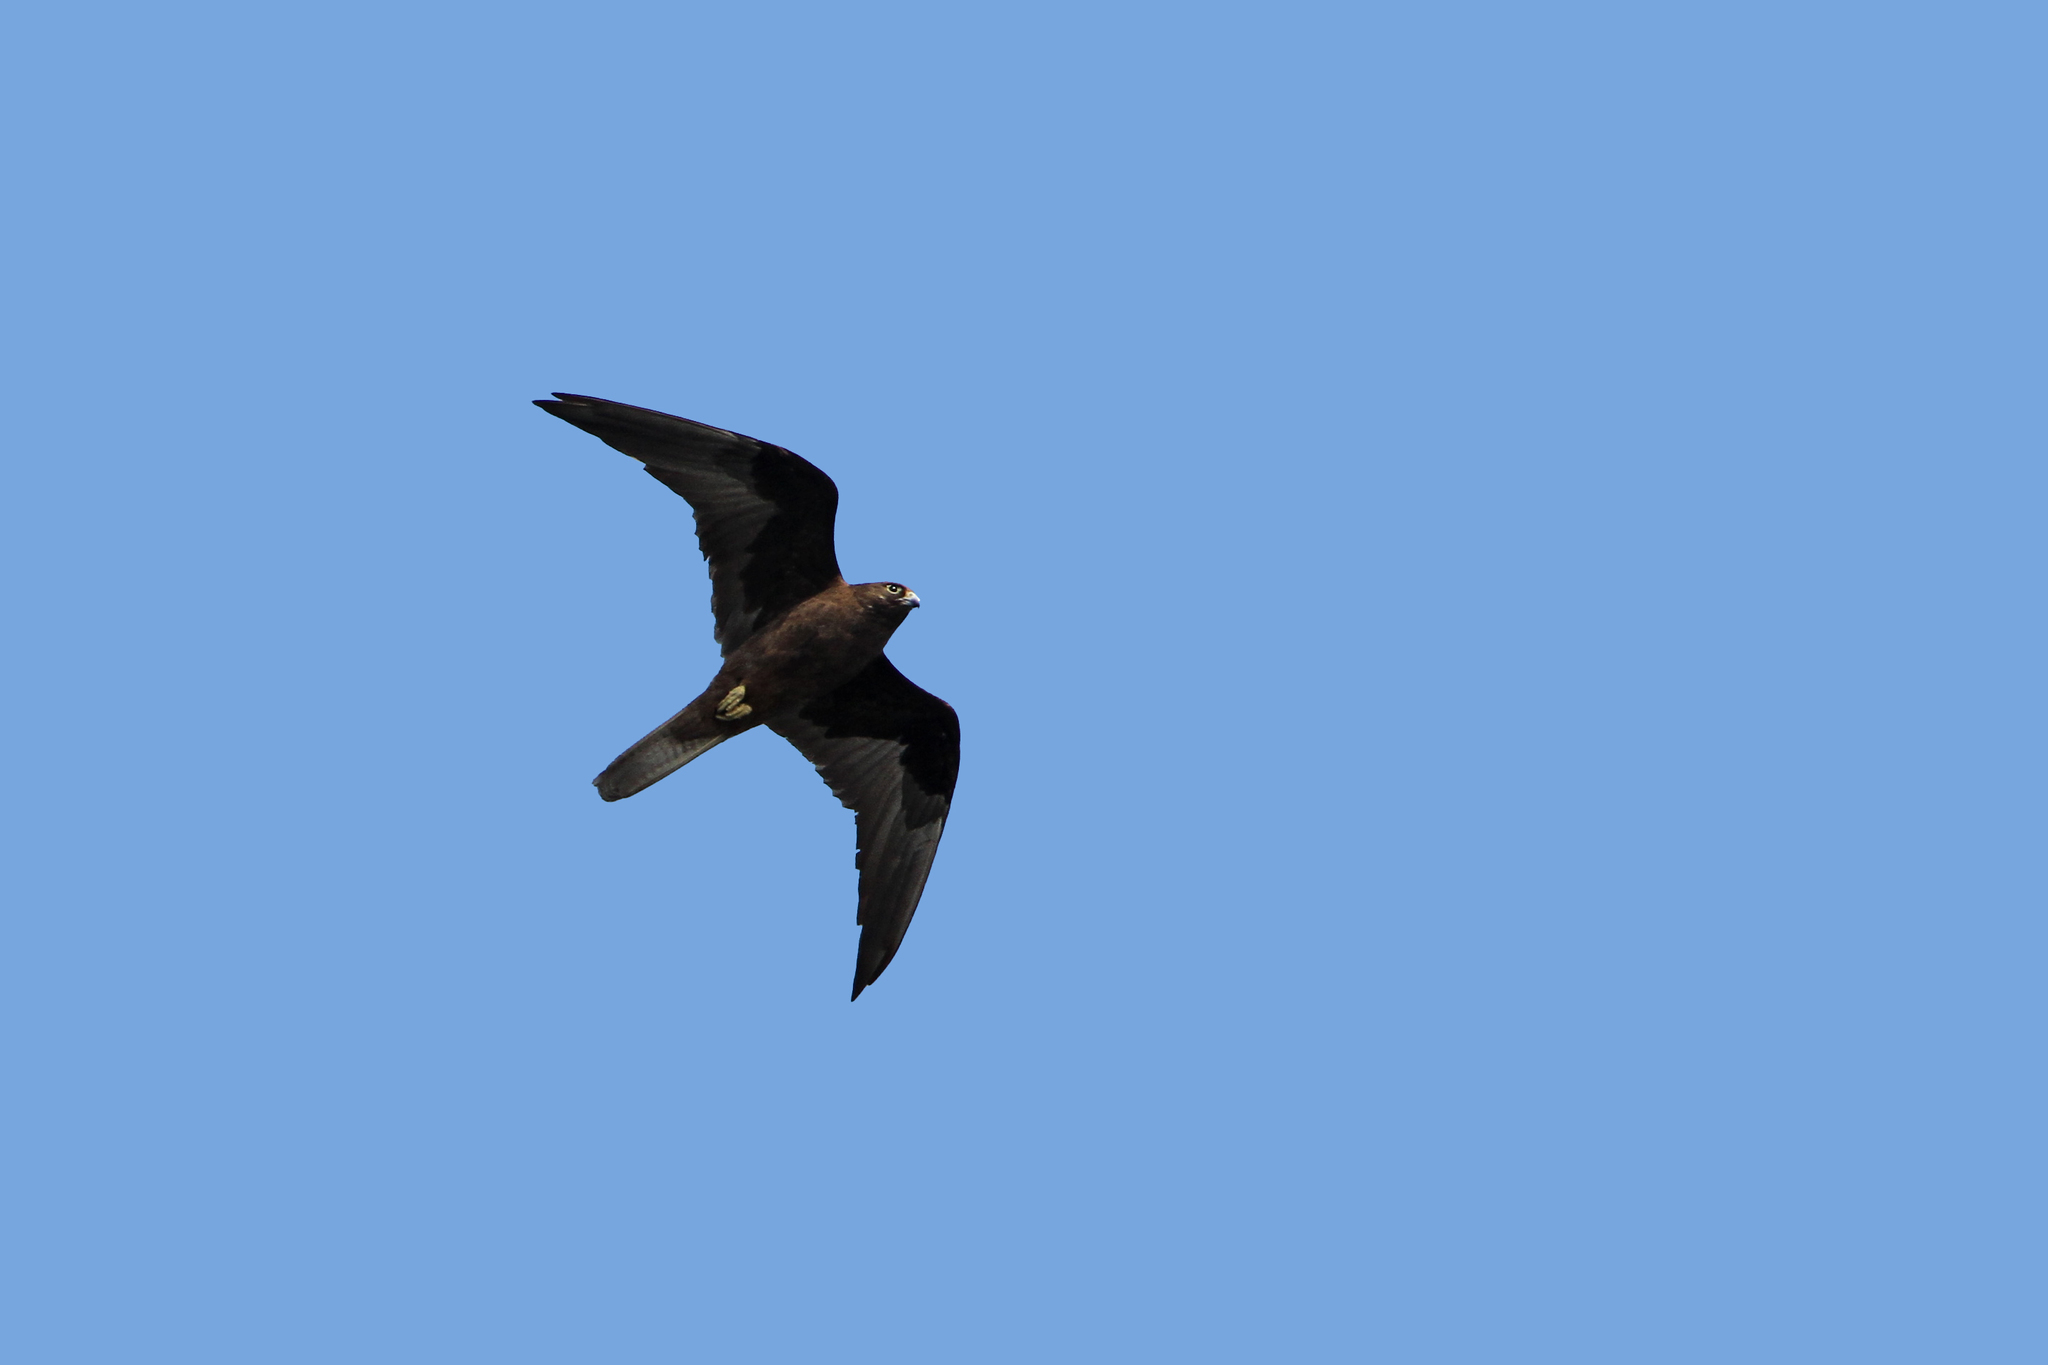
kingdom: Animalia
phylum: Chordata
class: Aves
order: Falconiformes
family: Falconidae
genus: Falco
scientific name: Falco eleonorae
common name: Eleonora's falcon
